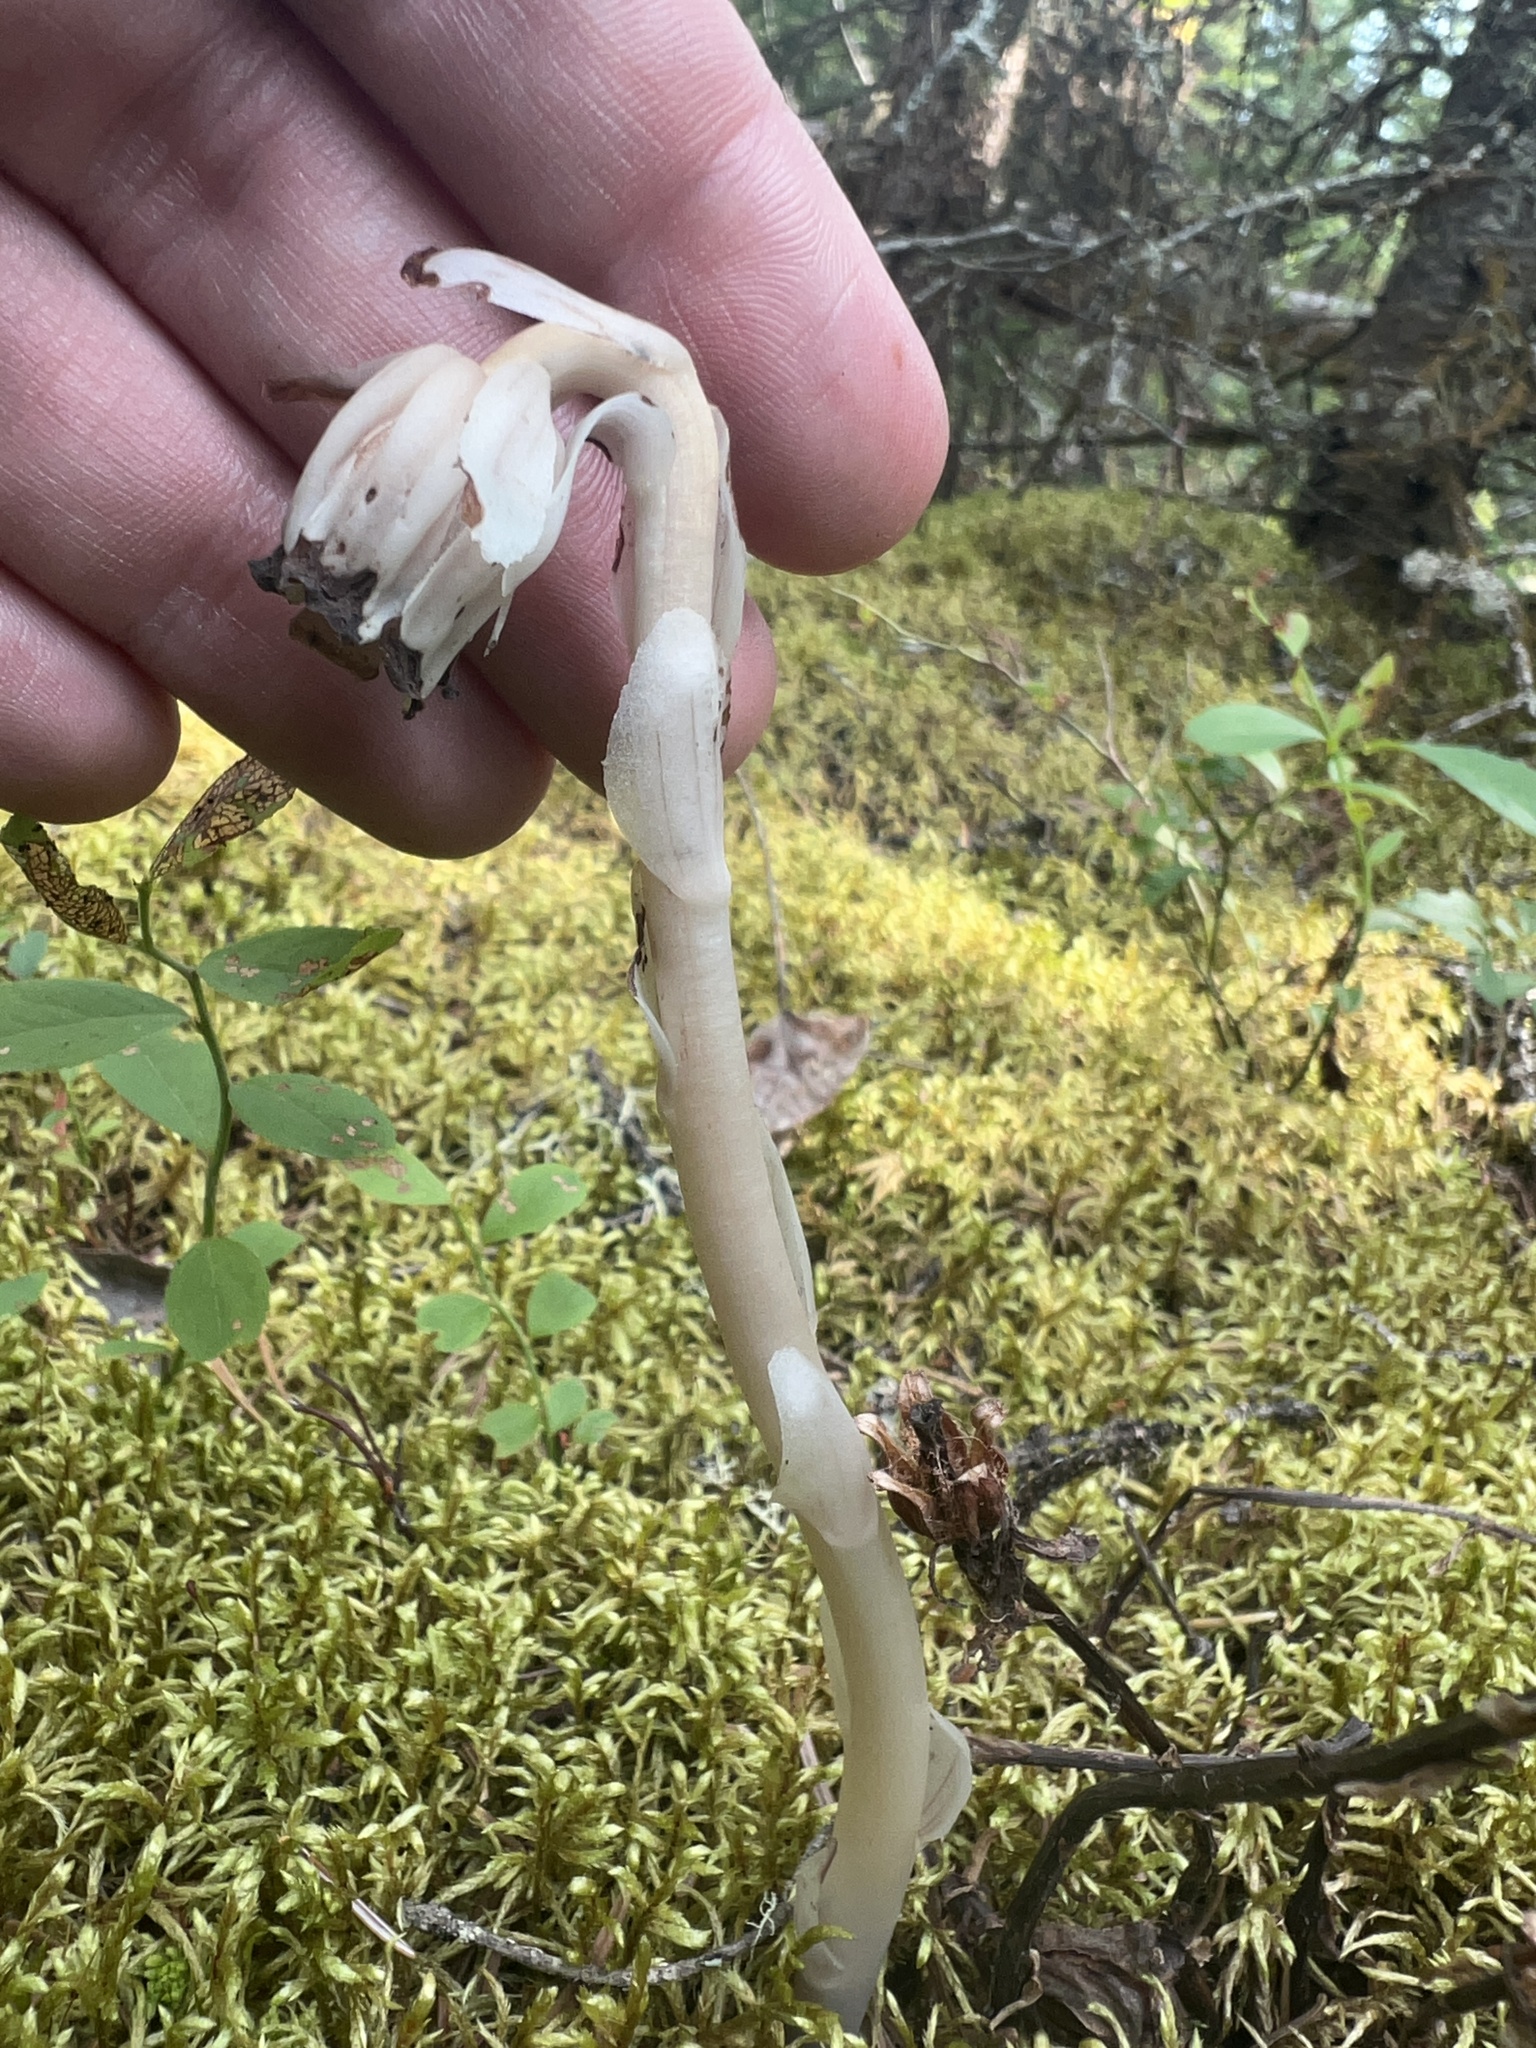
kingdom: Plantae
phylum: Tracheophyta
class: Magnoliopsida
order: Ericales
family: Ericaceae
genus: Monotropa
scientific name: Monotropa uniflora
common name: Convulsion root
